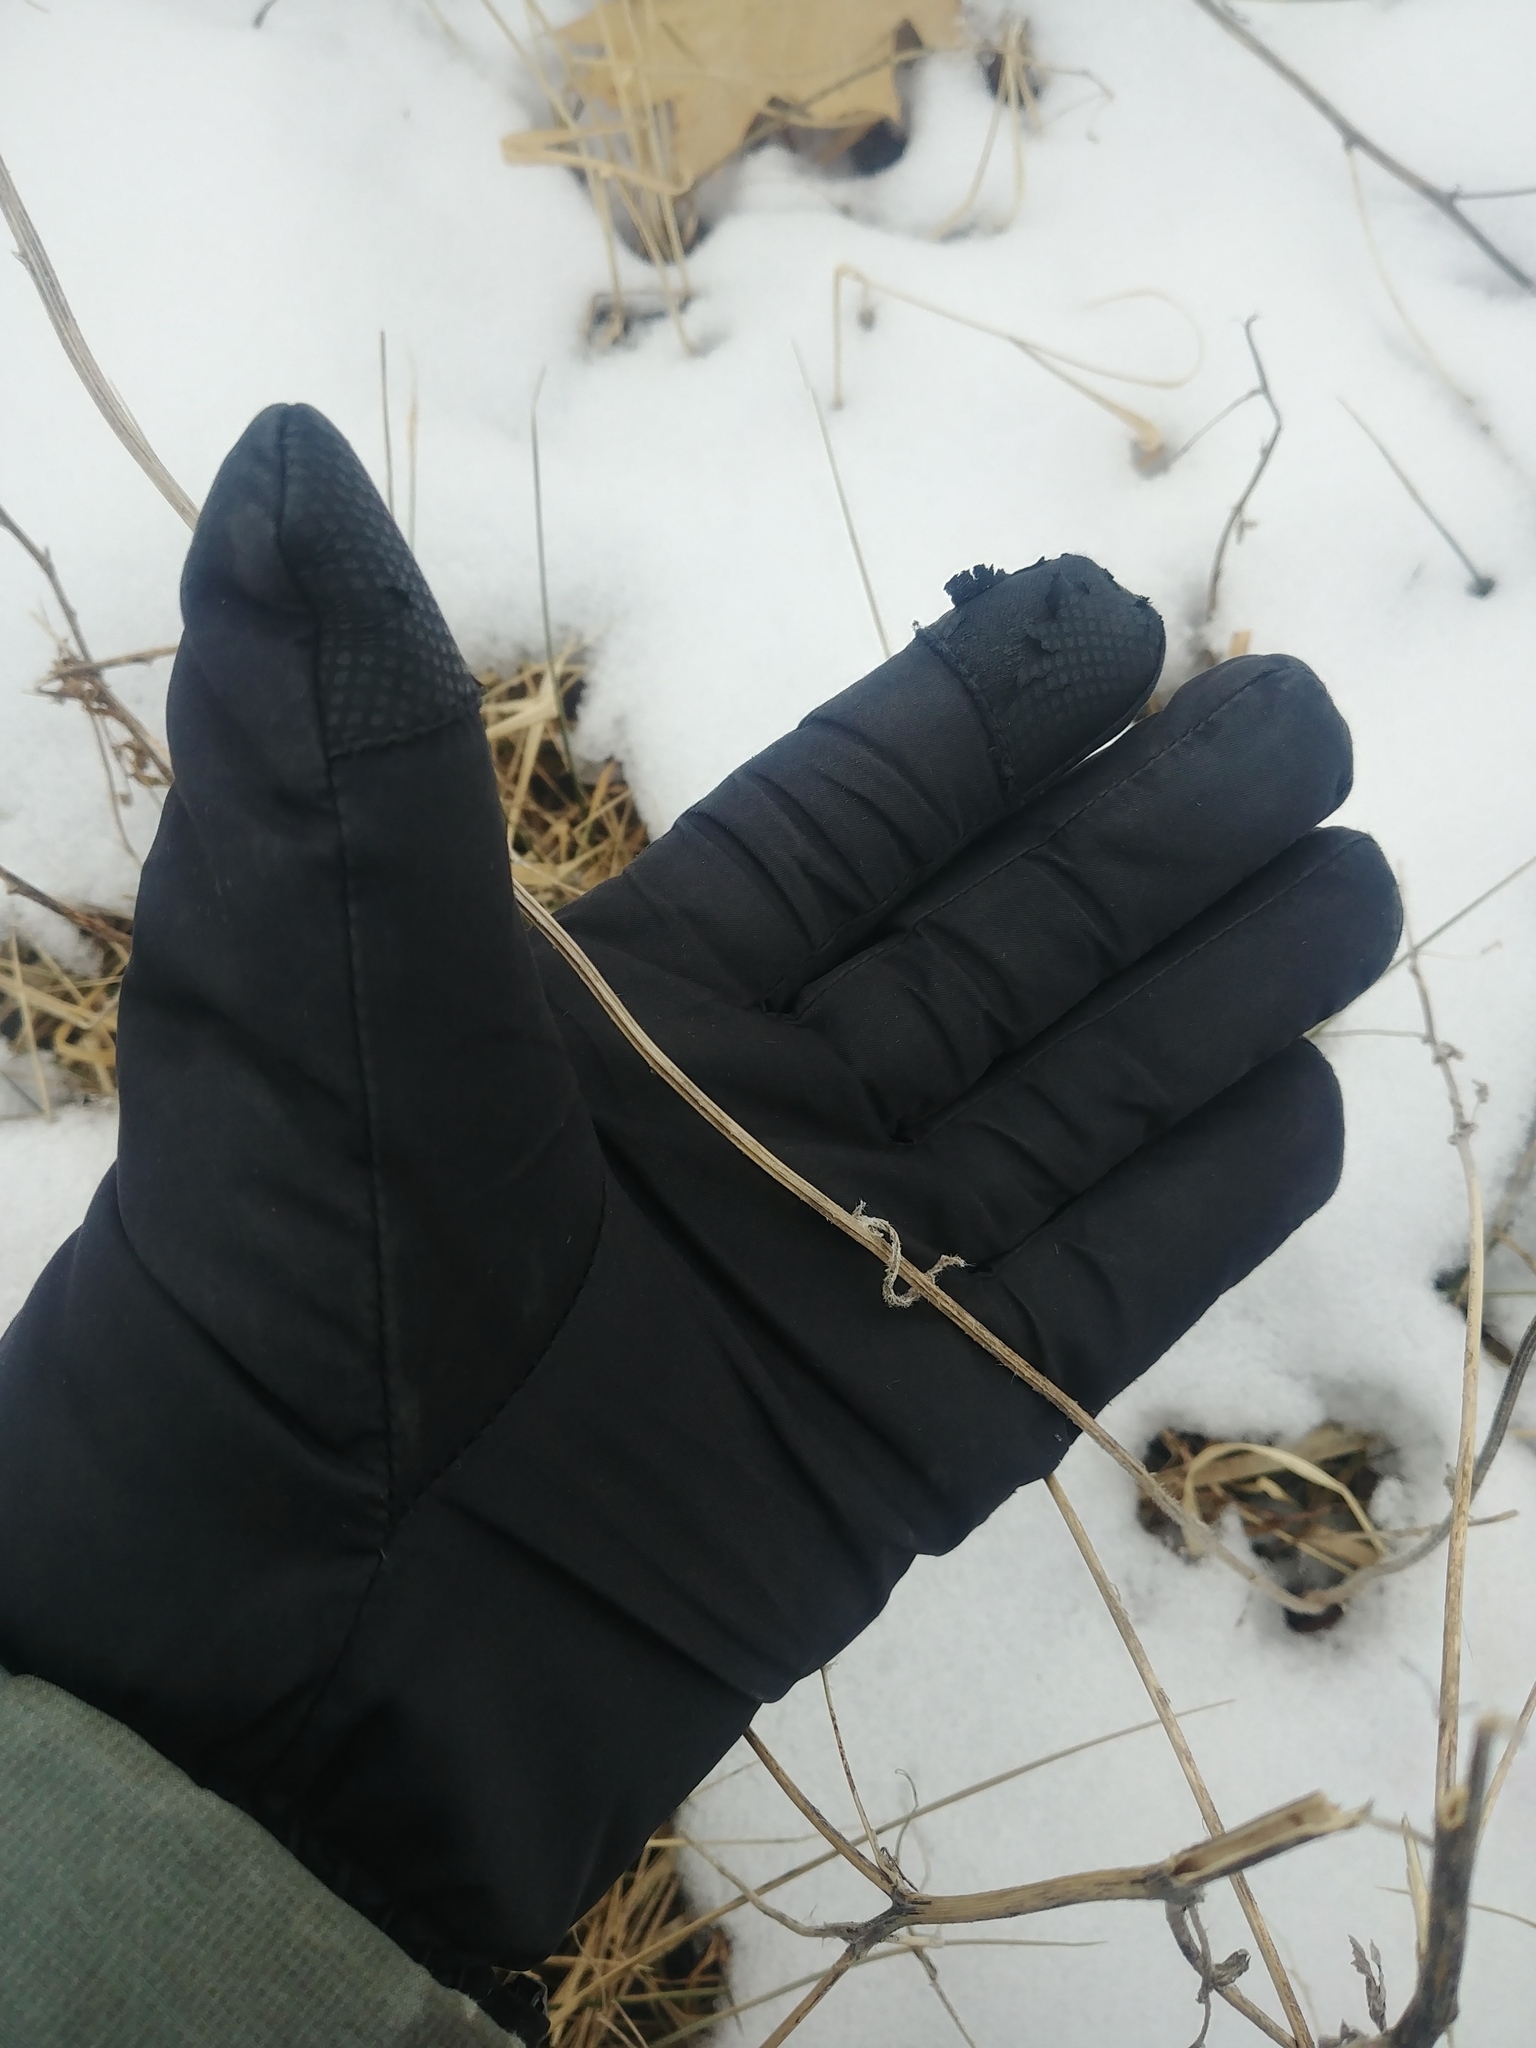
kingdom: Plantae
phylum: Tracheophyta
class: Magnoliopsida
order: Asterales
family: Asteraceae
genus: Rudbeckia
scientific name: Rudbeckia hirta
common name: Black-eyed-susan
